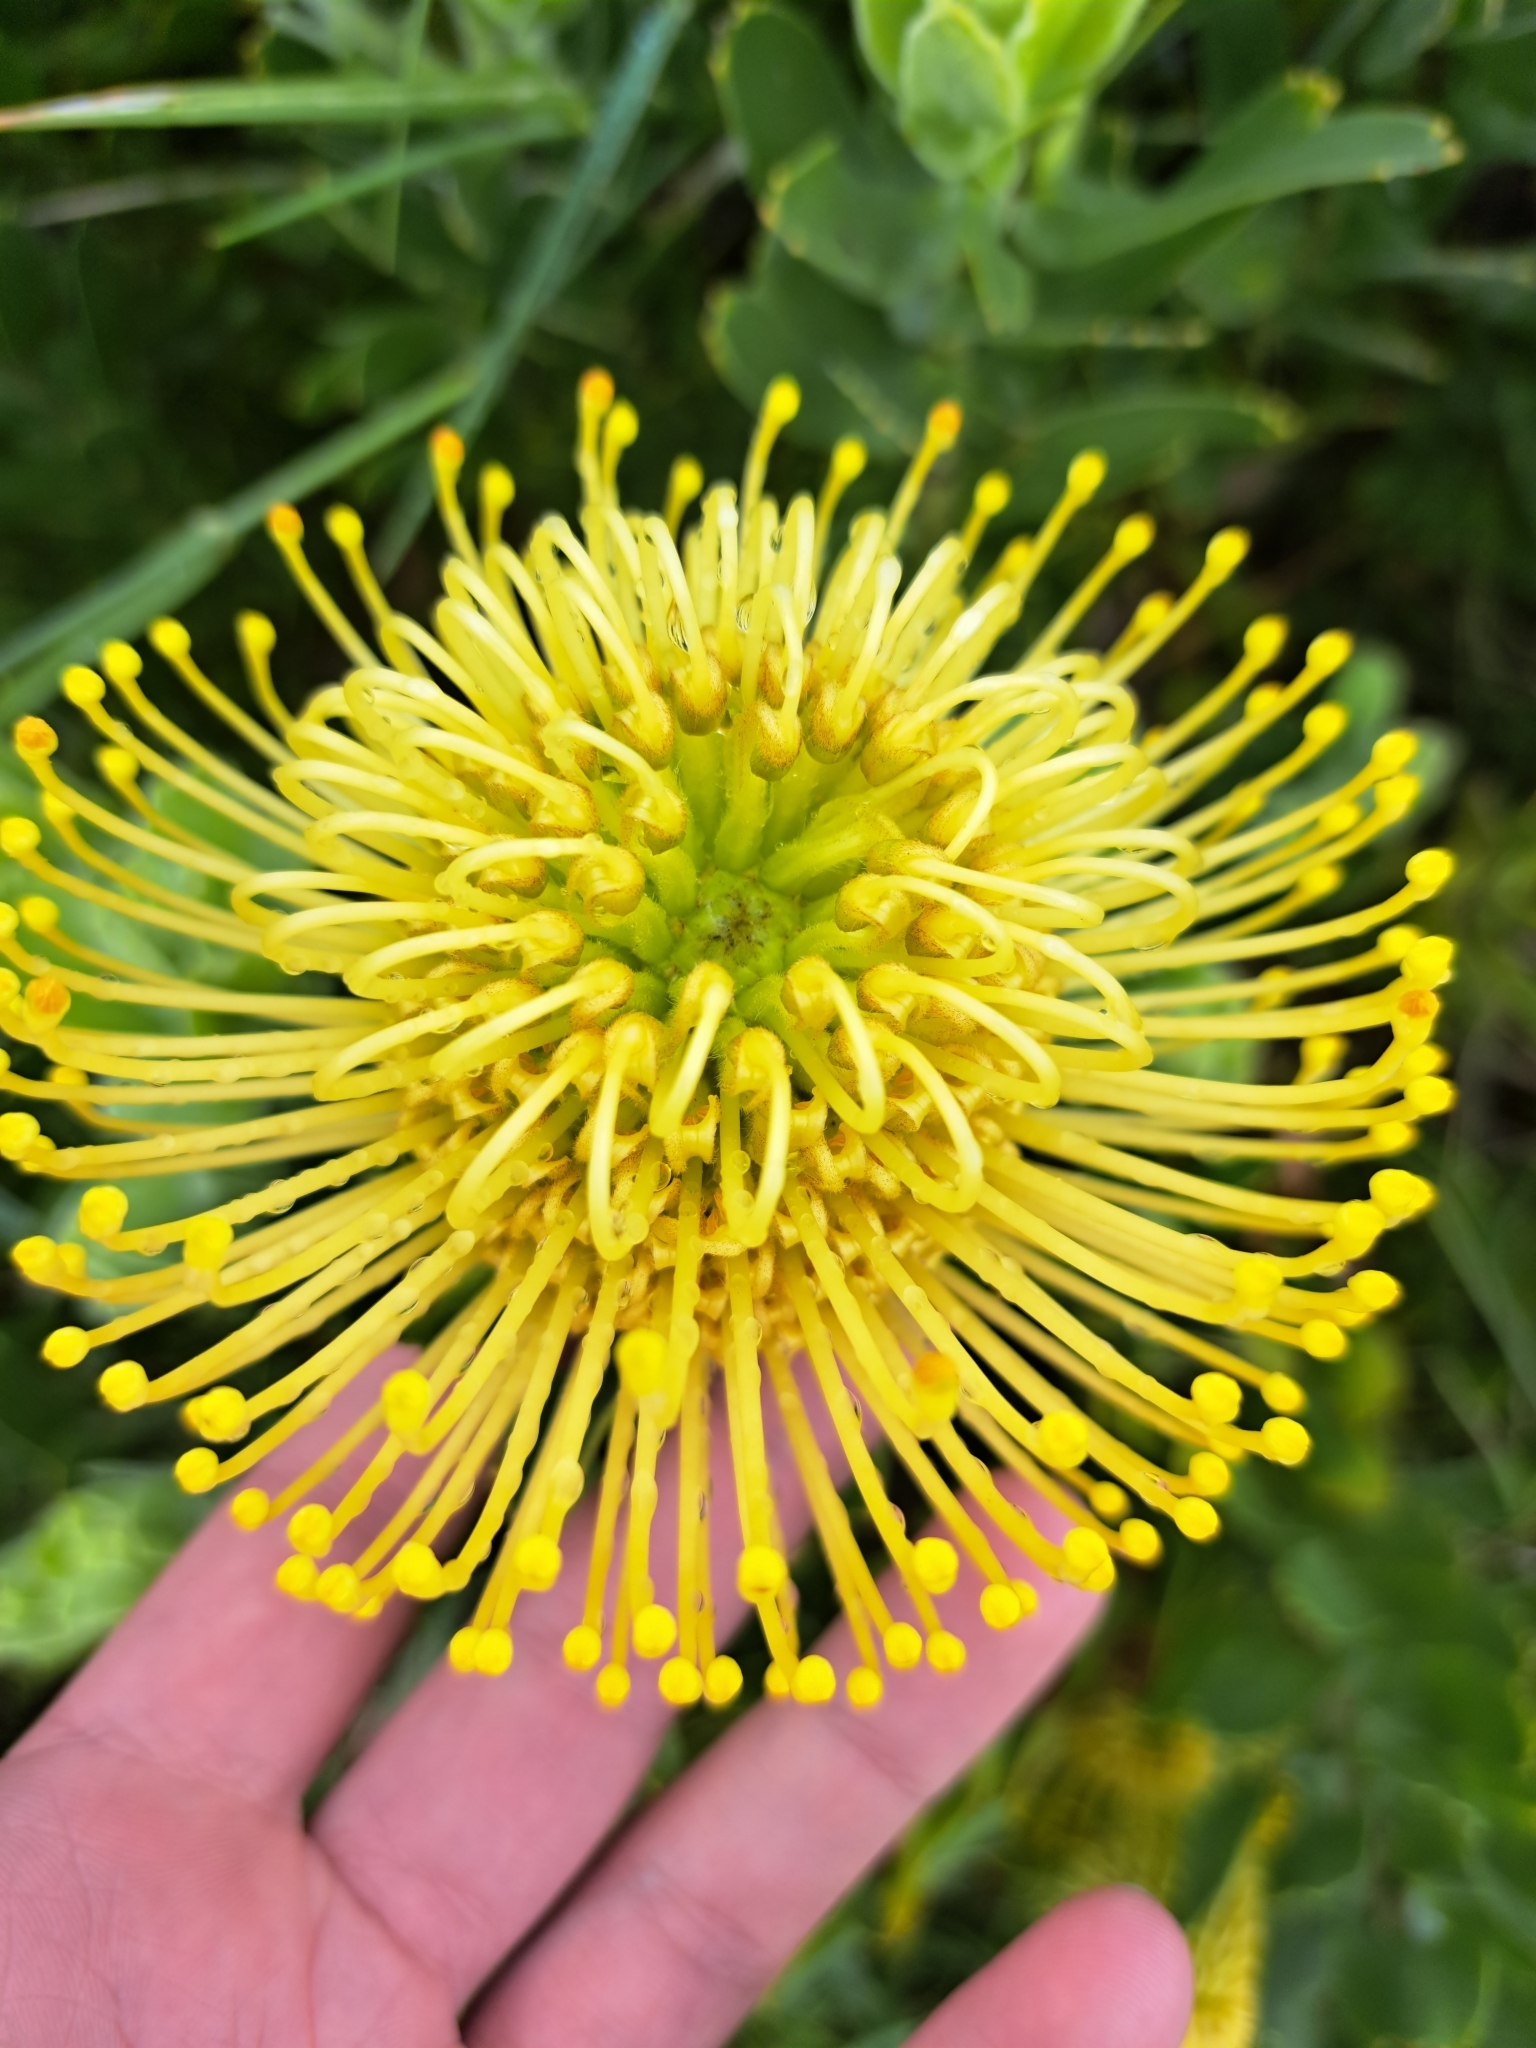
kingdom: Plantae
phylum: Tracheophyta
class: Magnoliopsida
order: Proteales
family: Proteaceae
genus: Leucospermum
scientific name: Leucospermum
